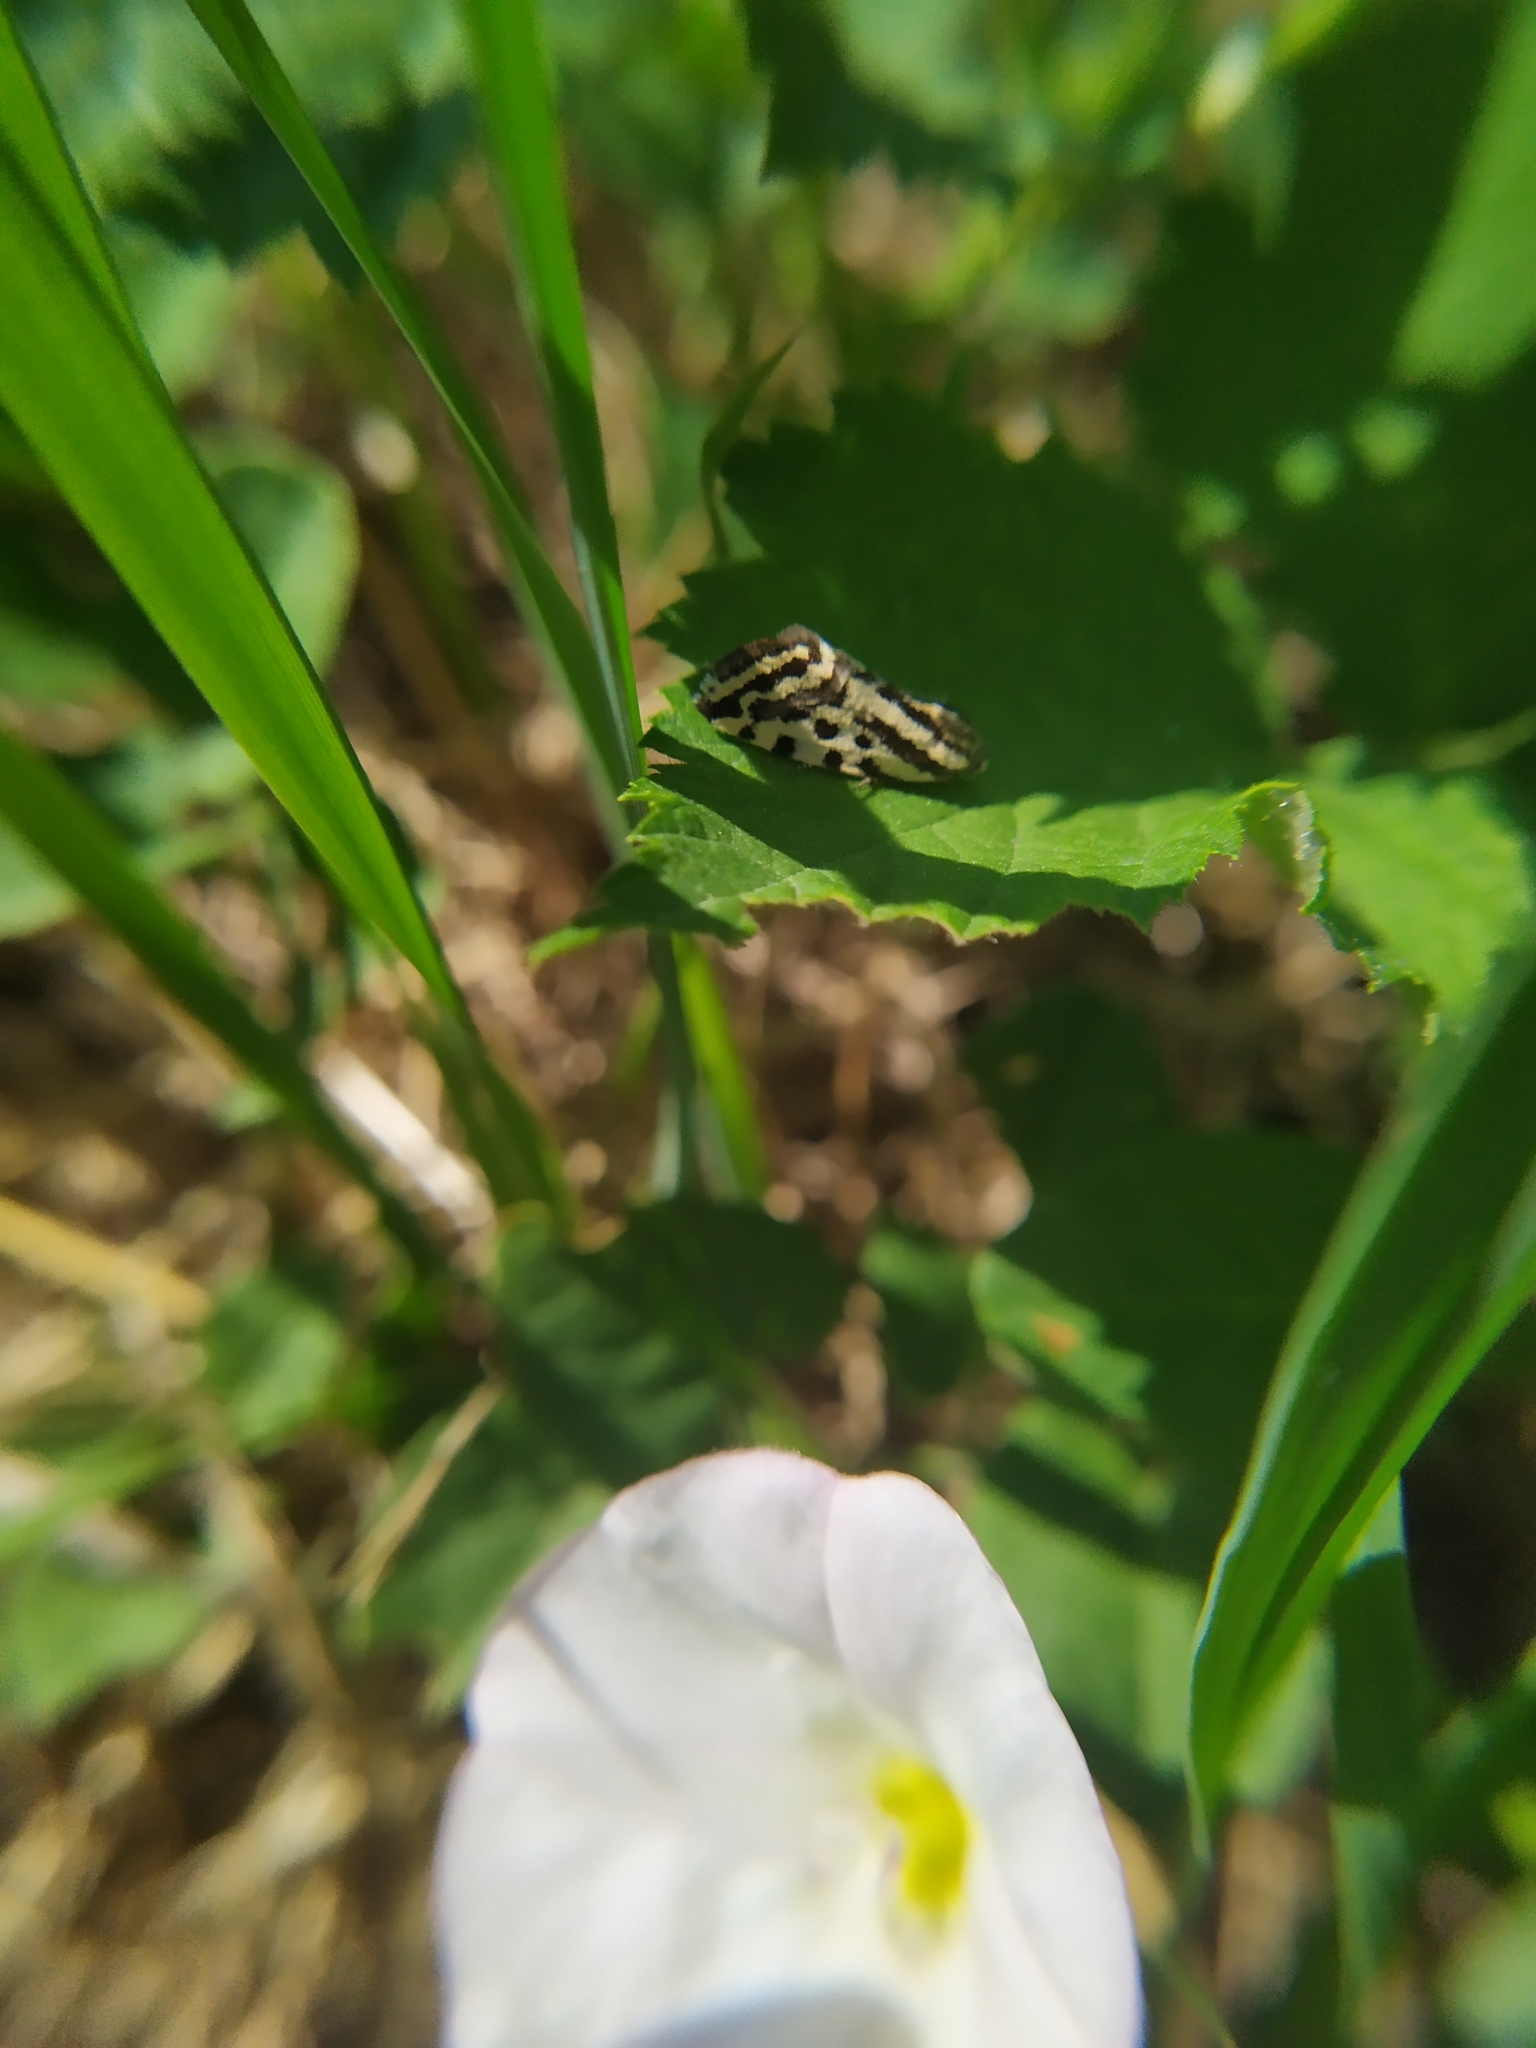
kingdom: Animalia
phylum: Arthropoda
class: Insecta
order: Lepidoptera
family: Noctuidae
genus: Acontia
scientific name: Acontia trabealis
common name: Spotted sulphur
